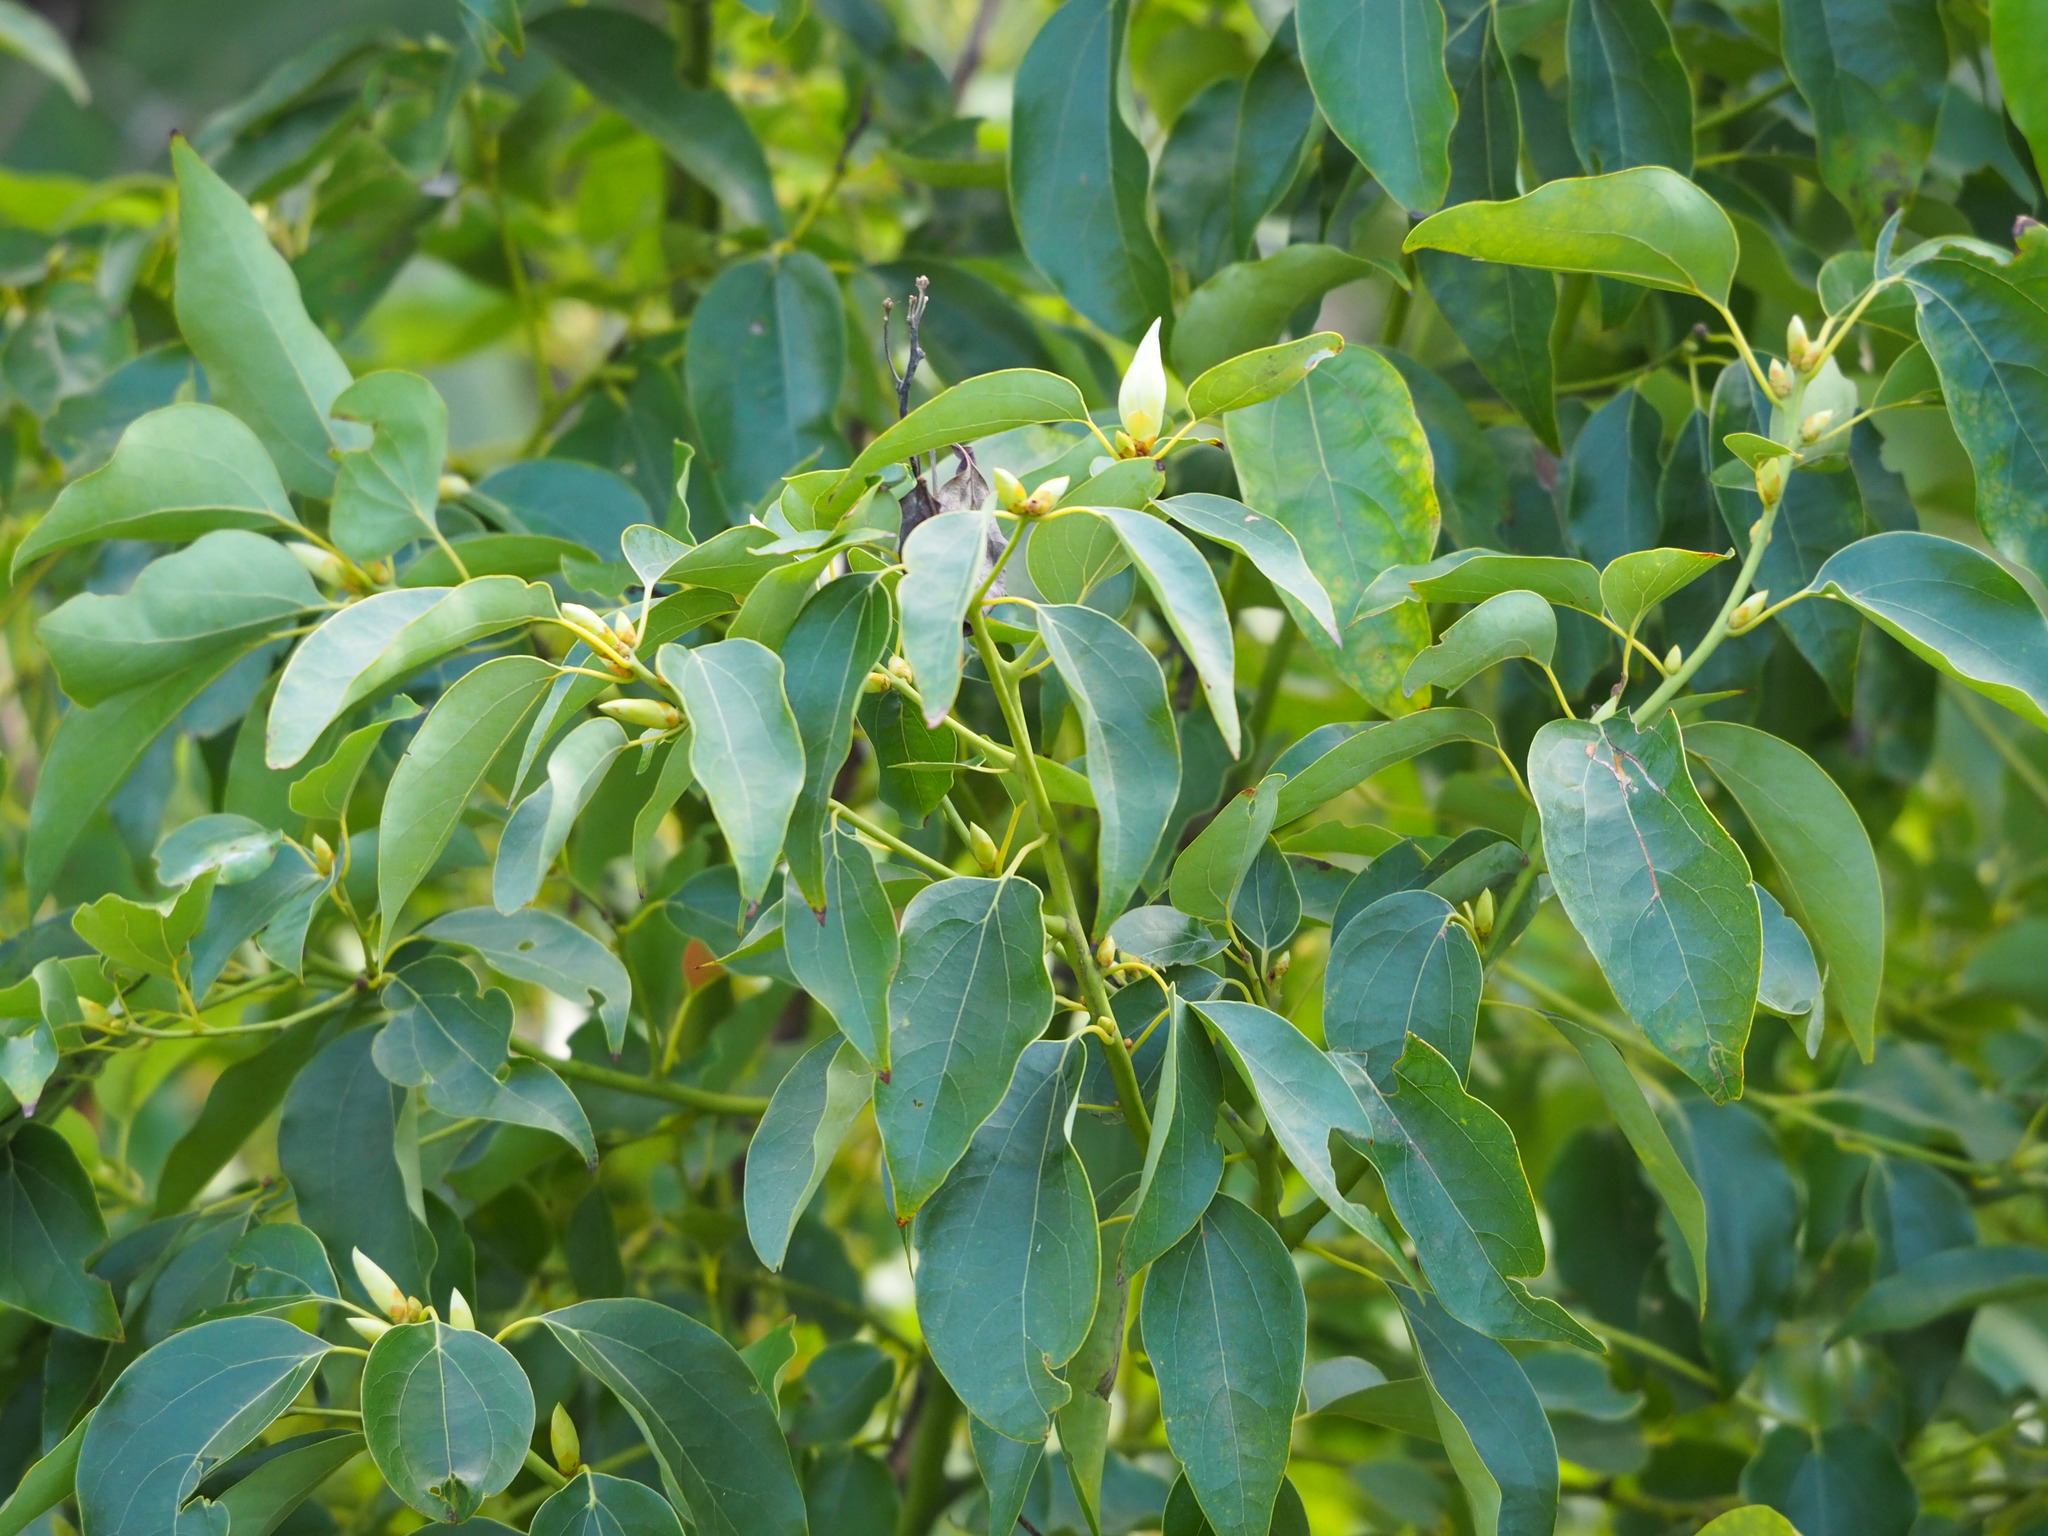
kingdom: Plantae
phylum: Tracheophyta
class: Magnoliopsida
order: Laurales
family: Lauraceae
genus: Cinnamomum
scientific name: Cinnamomum camphora
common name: Camphortree
